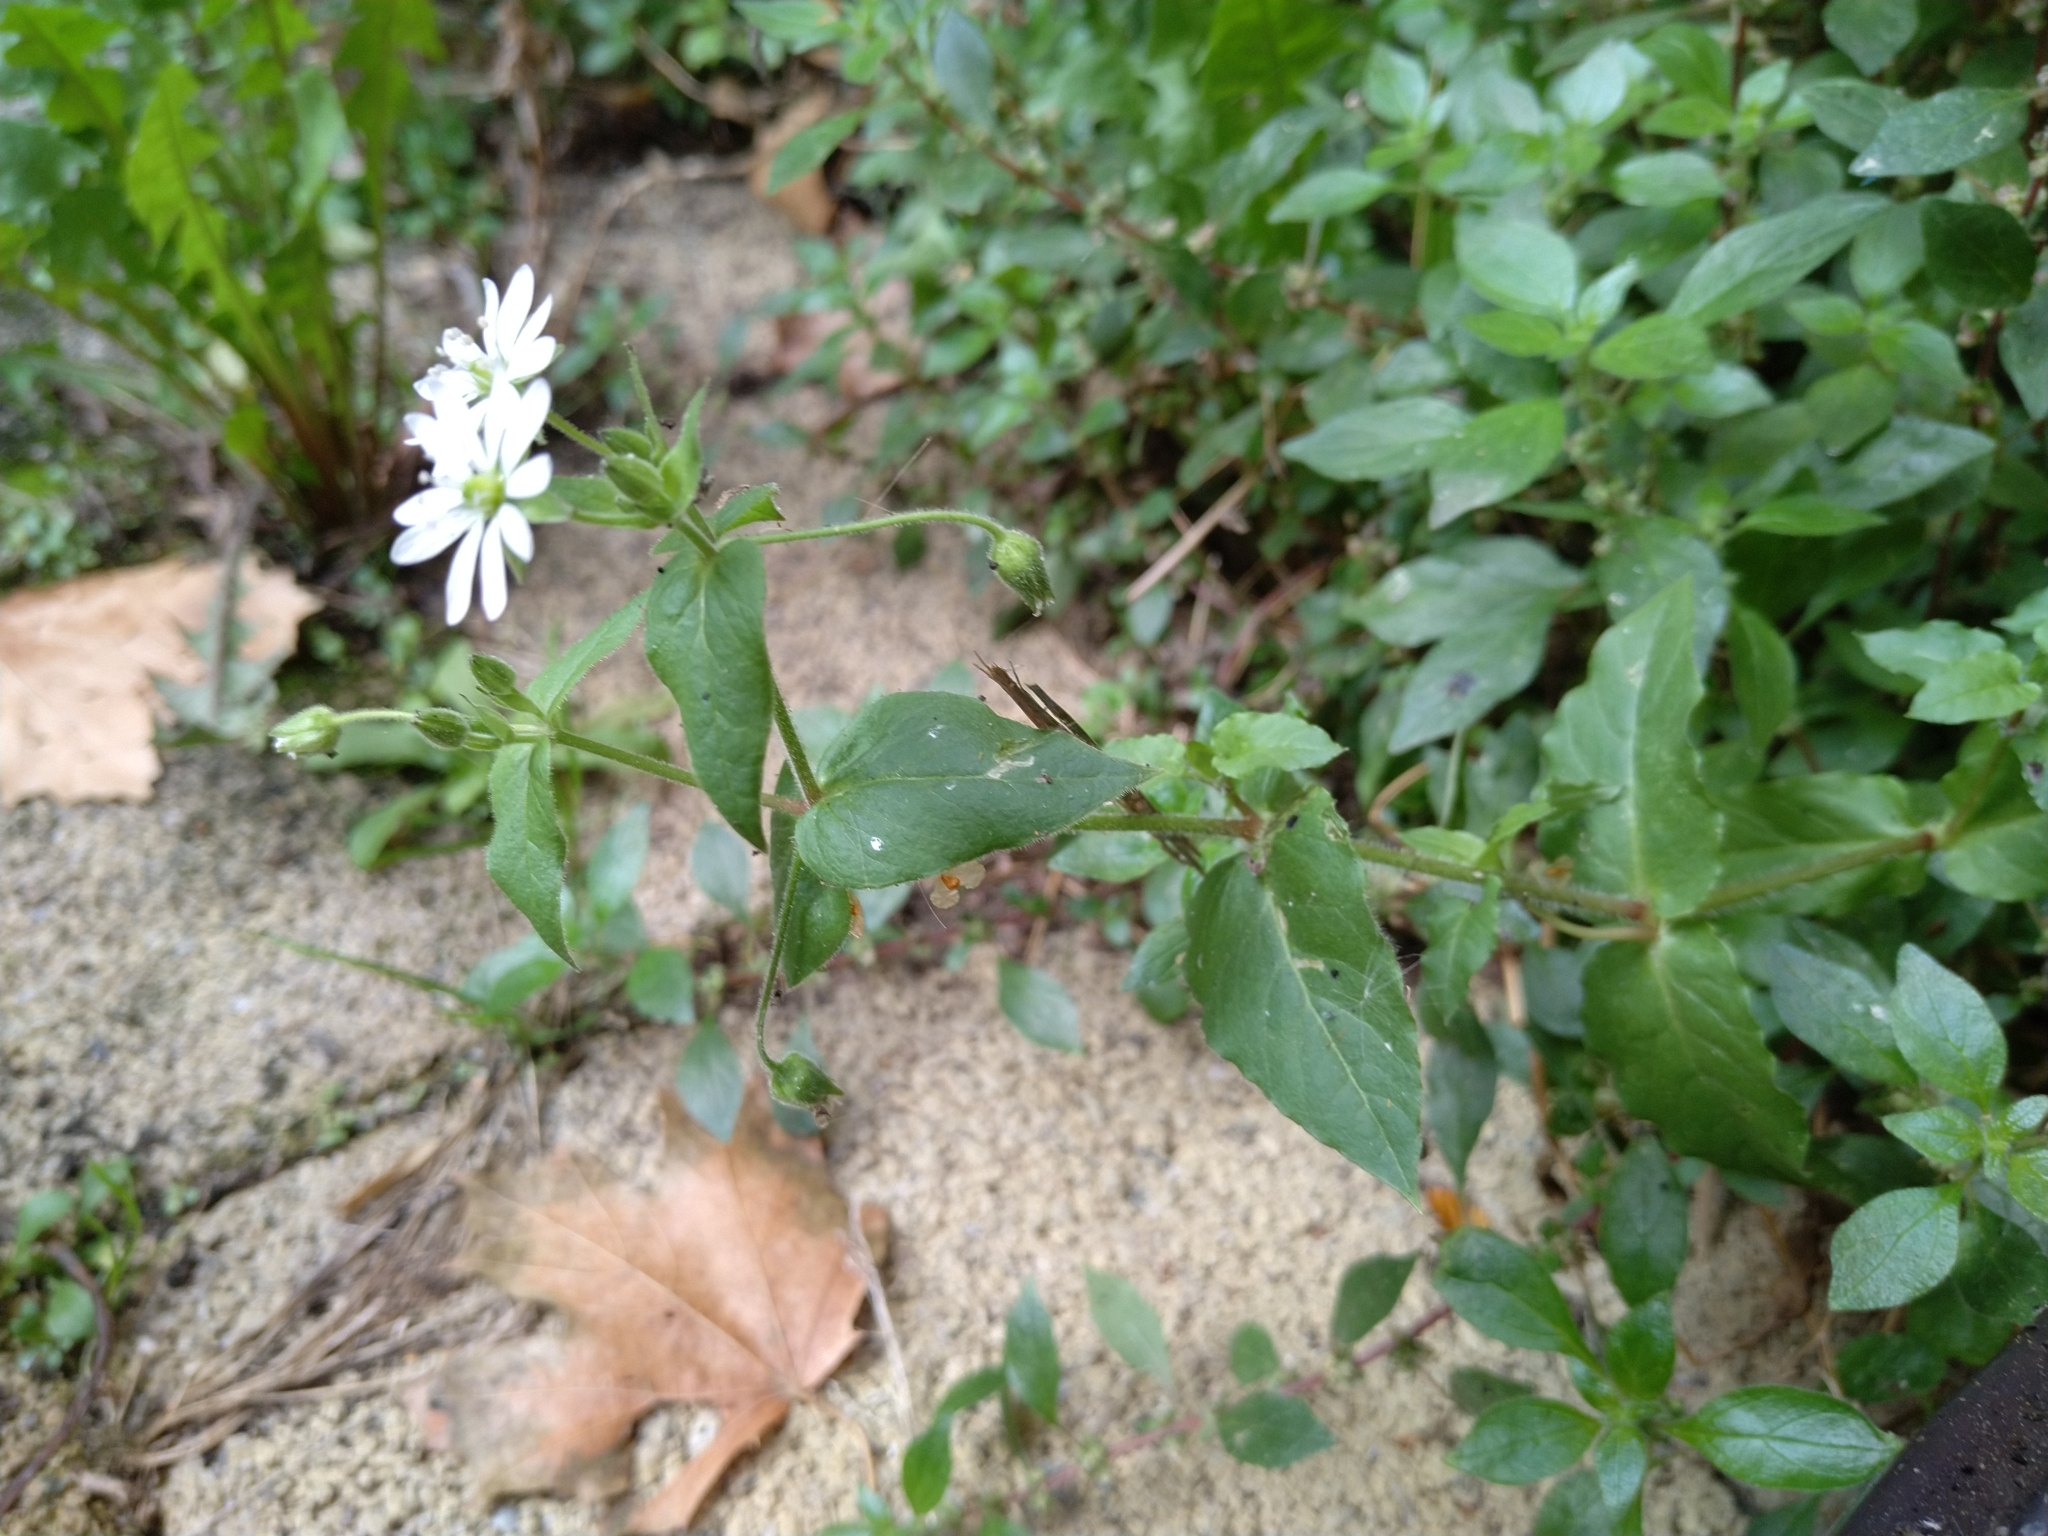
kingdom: Plantae
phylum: Tracheophyta
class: Magnoliopsida
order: Caryophyllales
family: Caryophyllaceae
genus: Stellaria
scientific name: Stellaria aquatica
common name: Water chickweed
